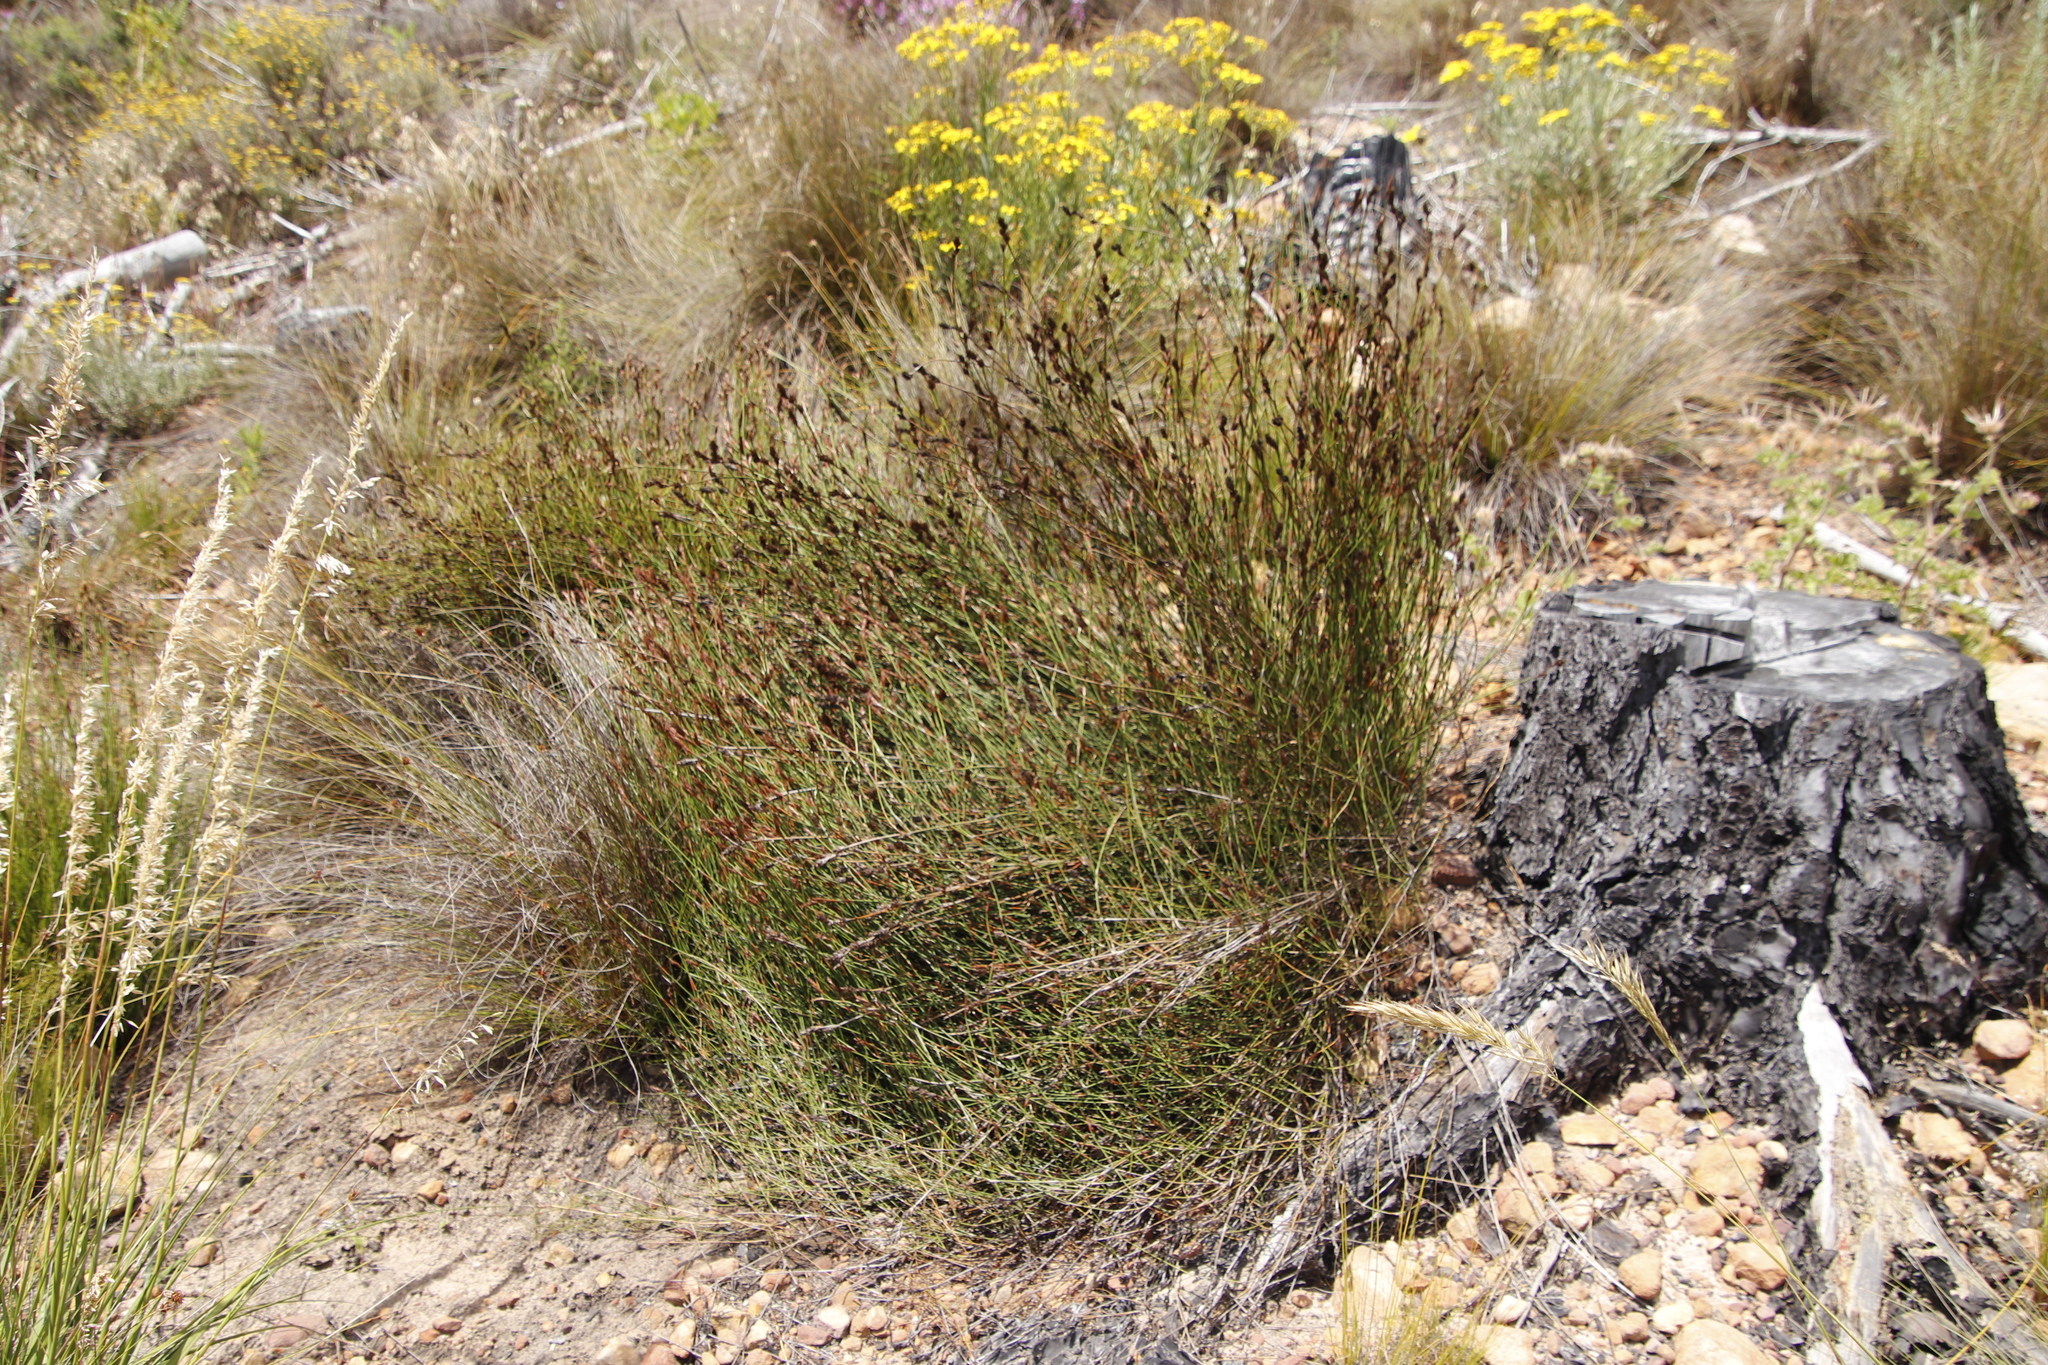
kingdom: Plantae
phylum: Tracheophyta
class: Liliopsida
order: Poales
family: Restionaceae
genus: Restio
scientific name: Restio capensis
